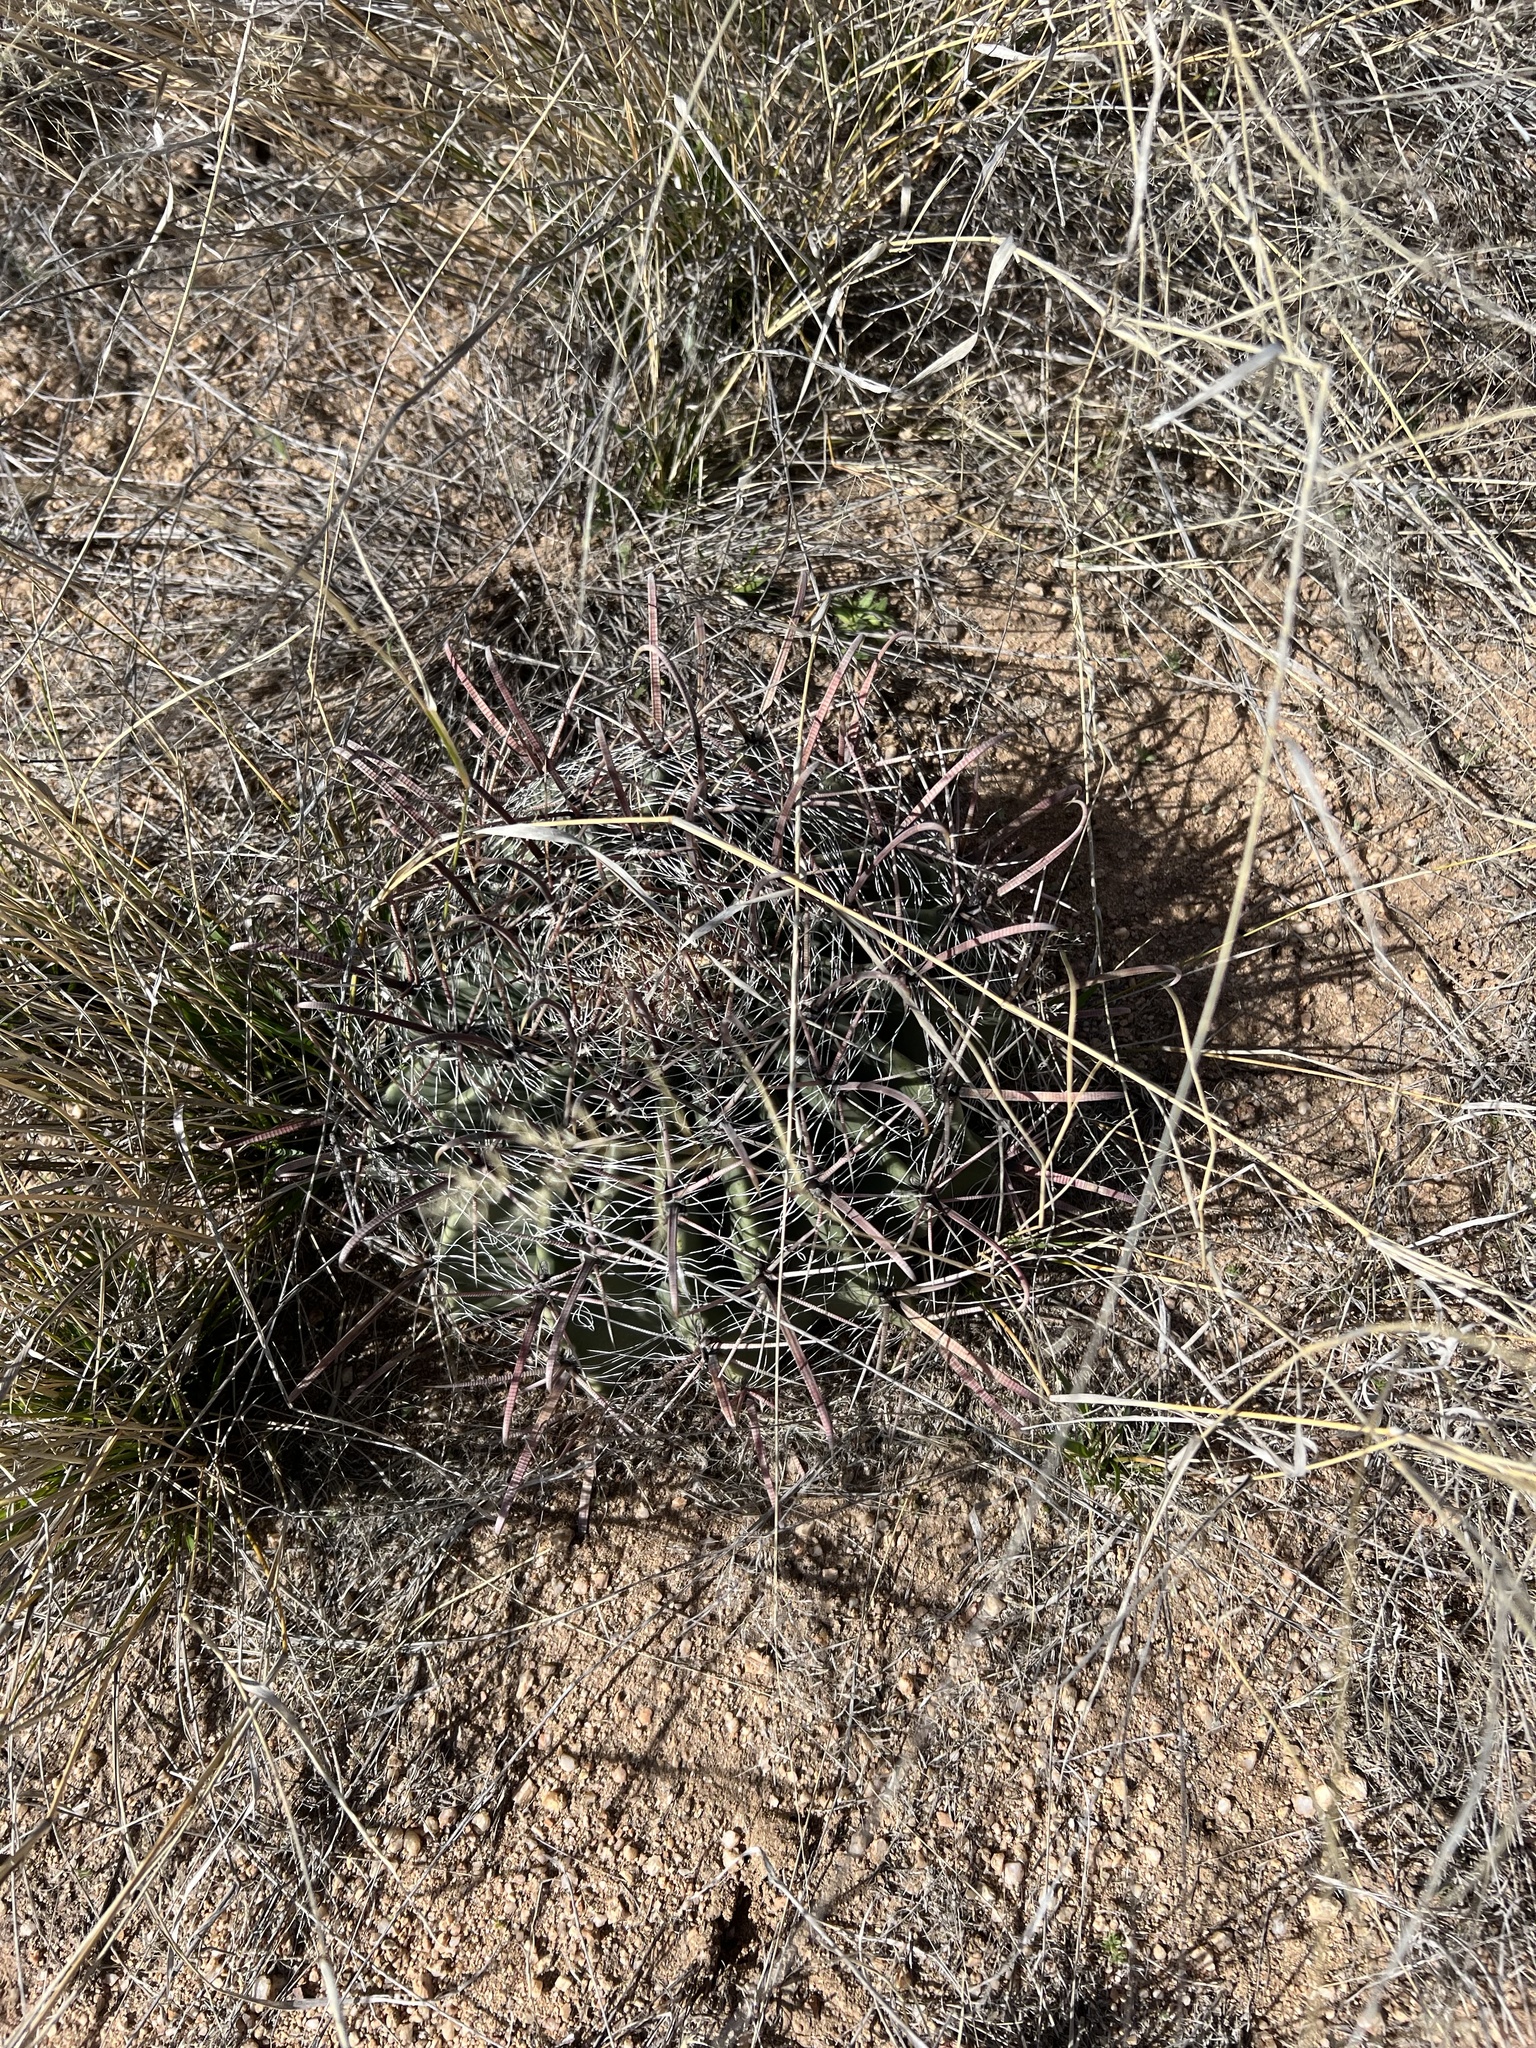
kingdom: Plantae
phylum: Tracheophyta
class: Magnoliopsida
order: Caryophyllales
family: Cactaceae
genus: Ferocactus
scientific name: Ferocactus wislizeni
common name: Candy barrel cactus
